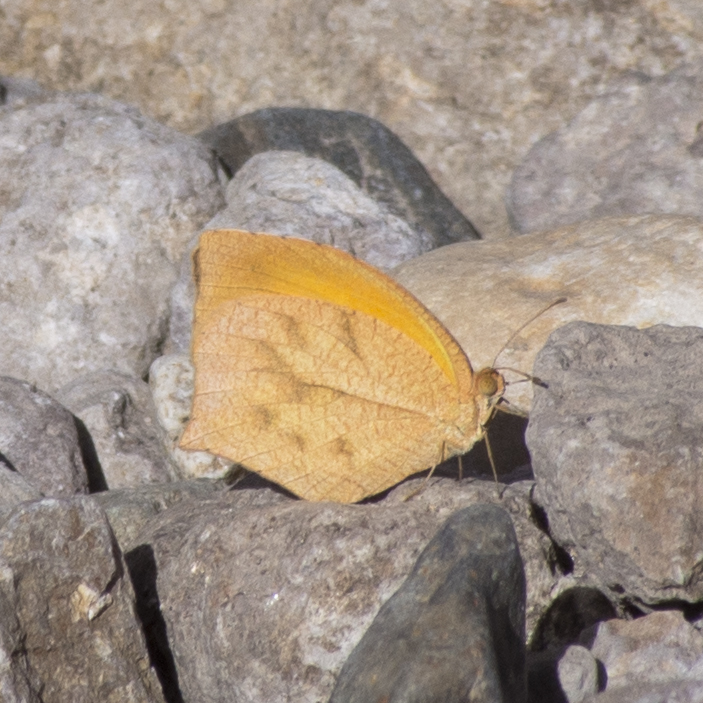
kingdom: Animalia
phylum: Arthropoda
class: Insecta
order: Lepidoptera
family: Pieridae
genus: Pyrisitia
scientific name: Pyrisitia proterpia
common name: Tailed orange
